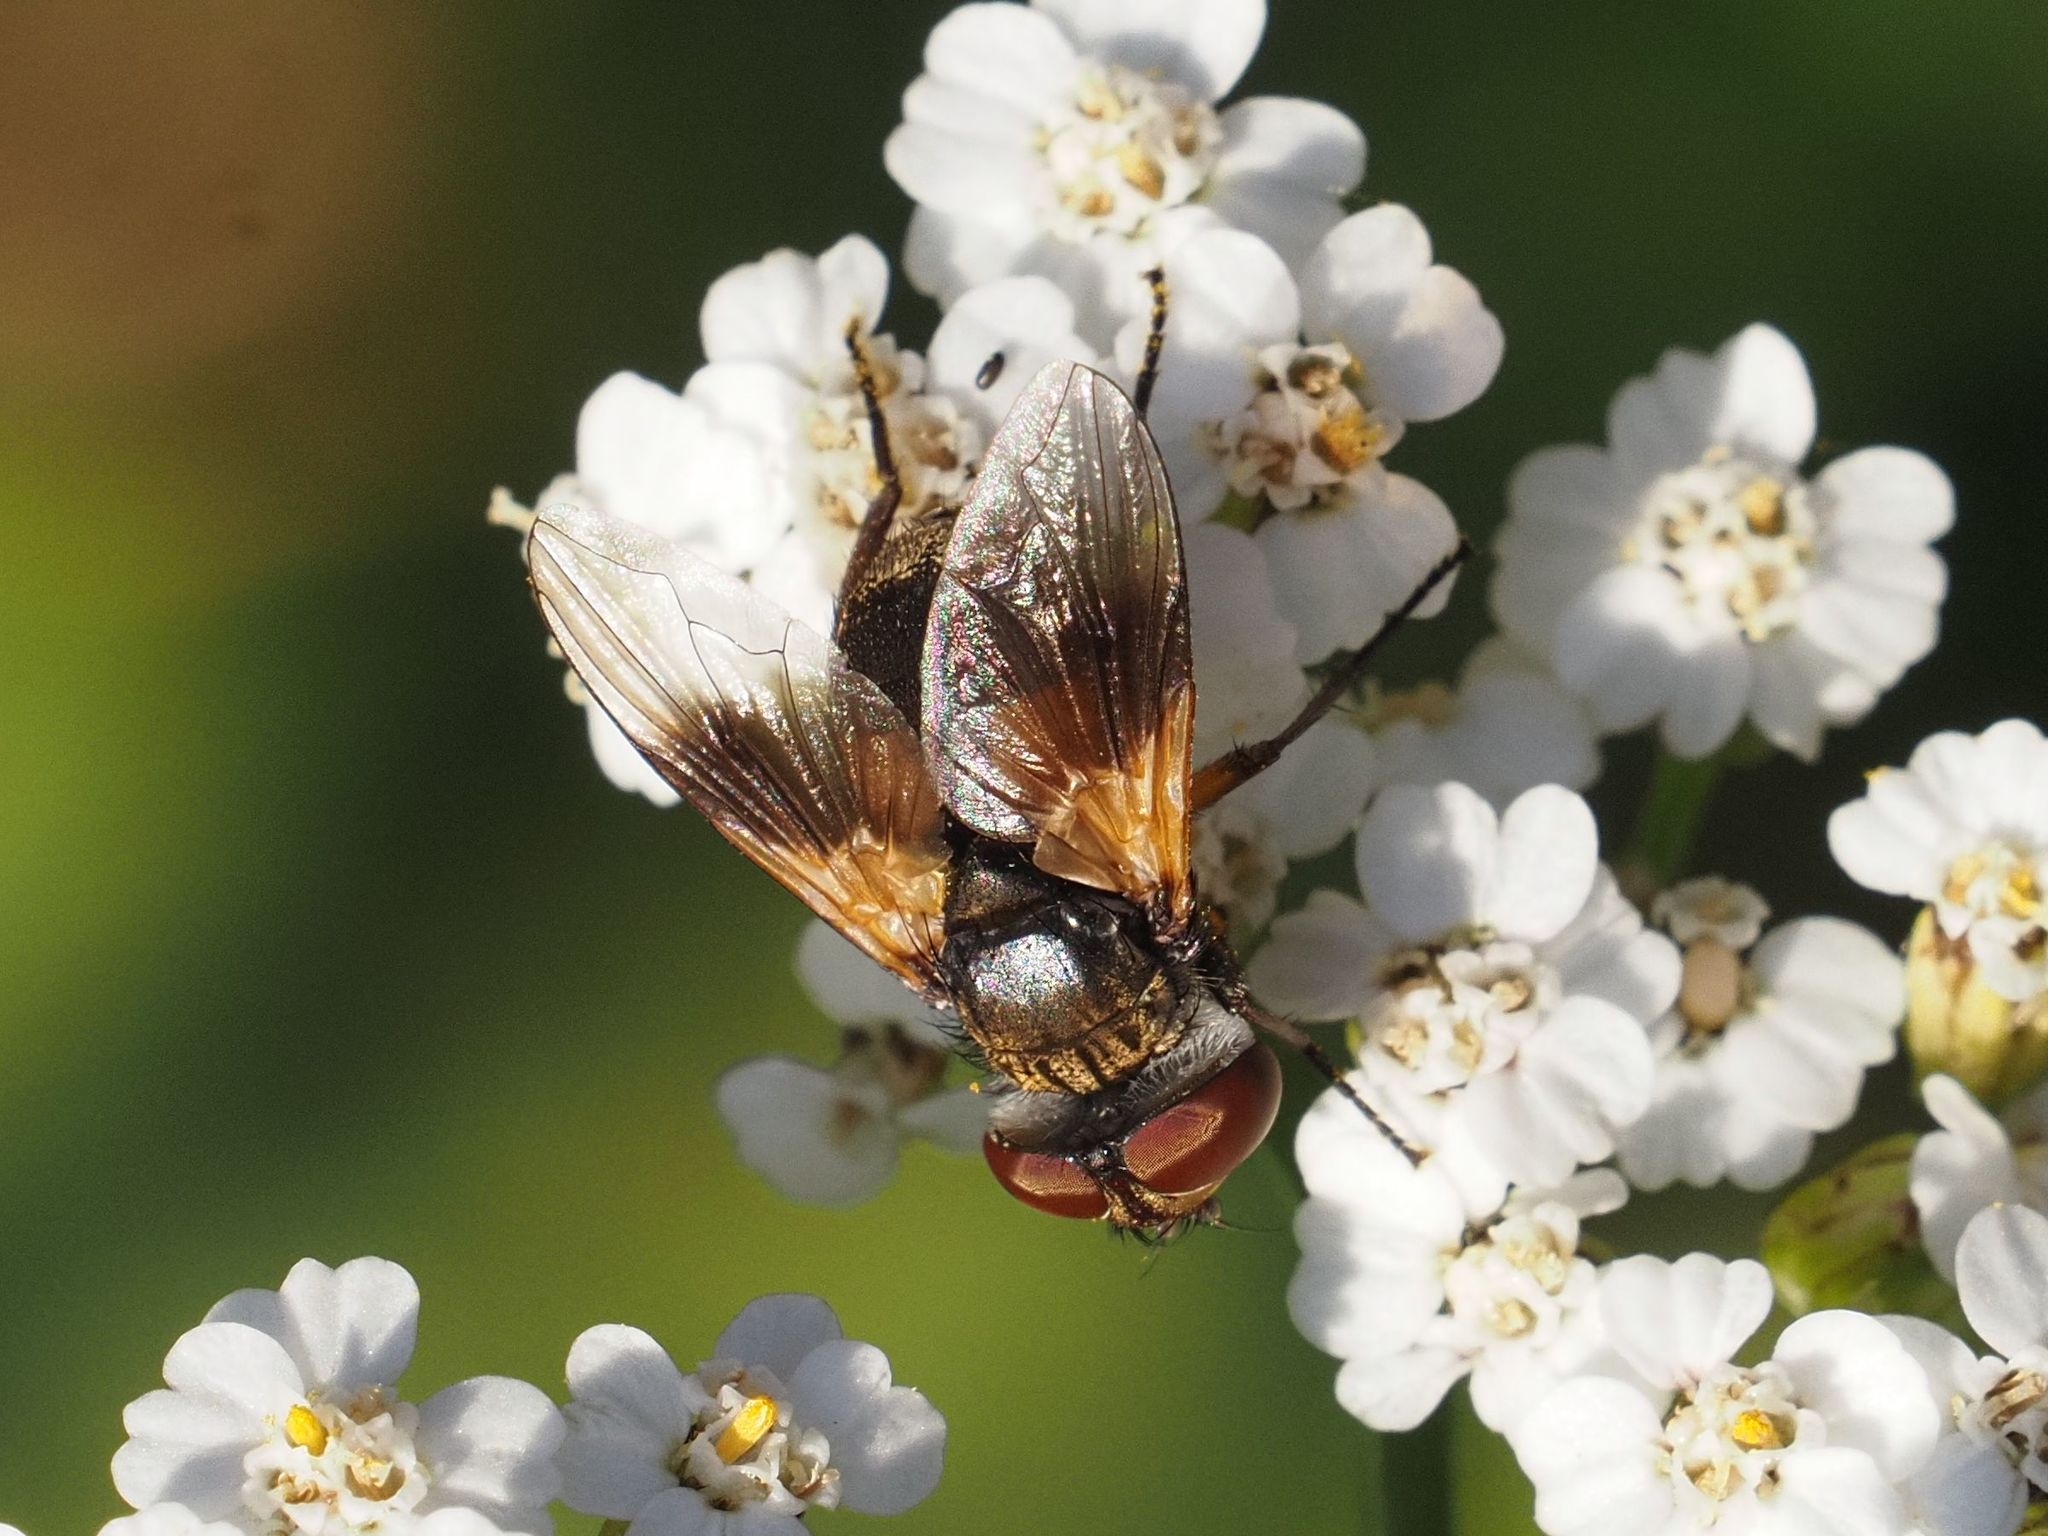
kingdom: Animalia
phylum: Arthropoda
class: Insecta
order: Diptera
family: Tachinidae
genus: Ectophasia
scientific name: Ectophasia crassipennis
